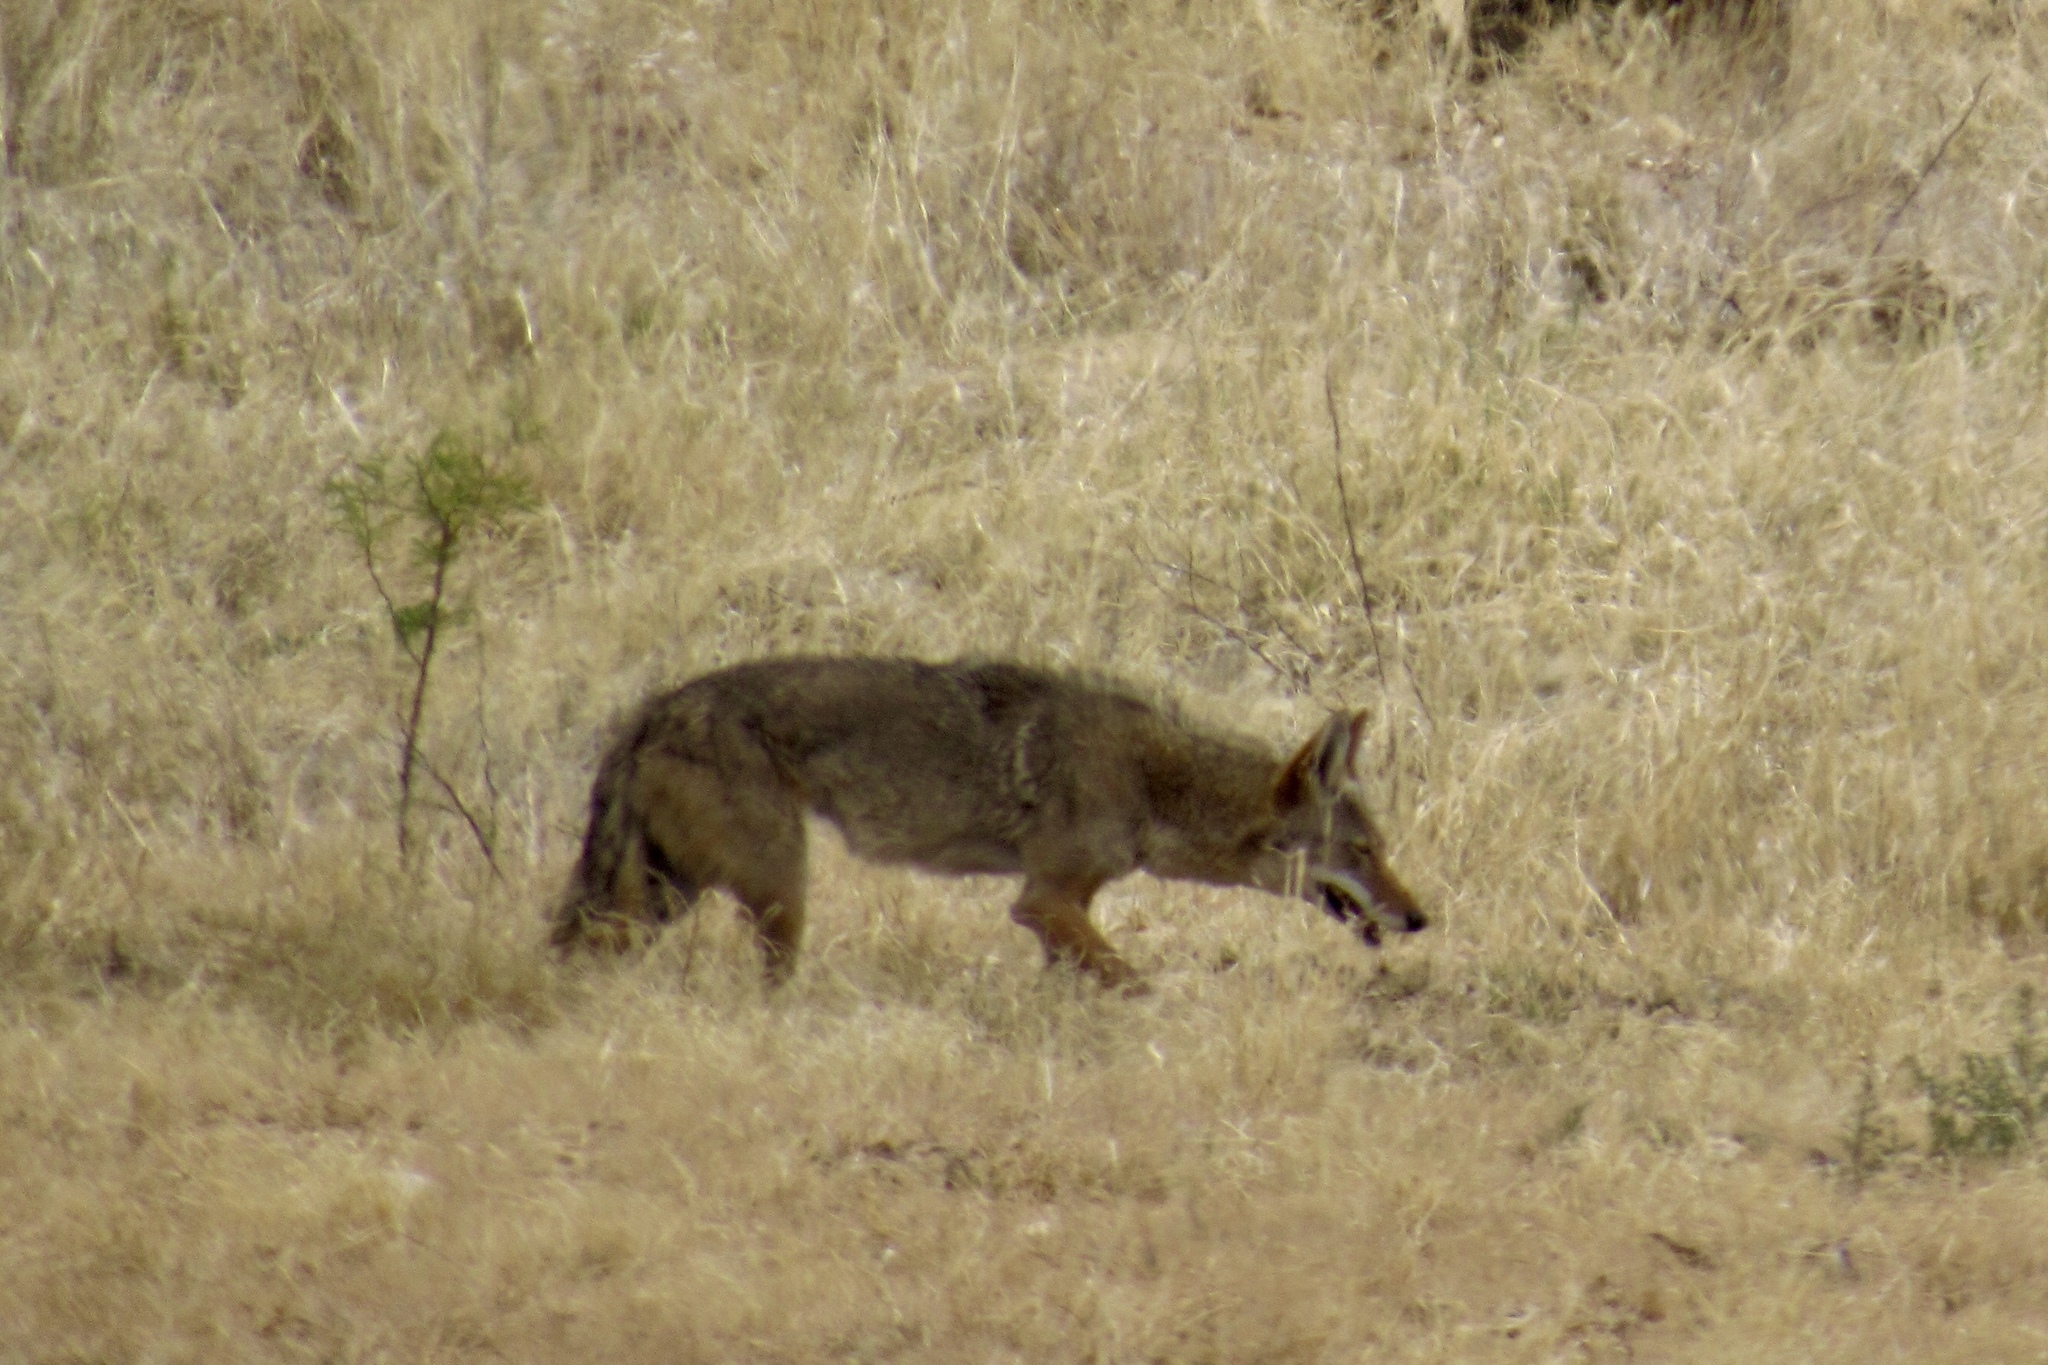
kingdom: Animalia
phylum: Chordata
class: Mammalia
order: Carnivora
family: Canidae
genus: Canis
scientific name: Canis latrans
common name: Coyote
